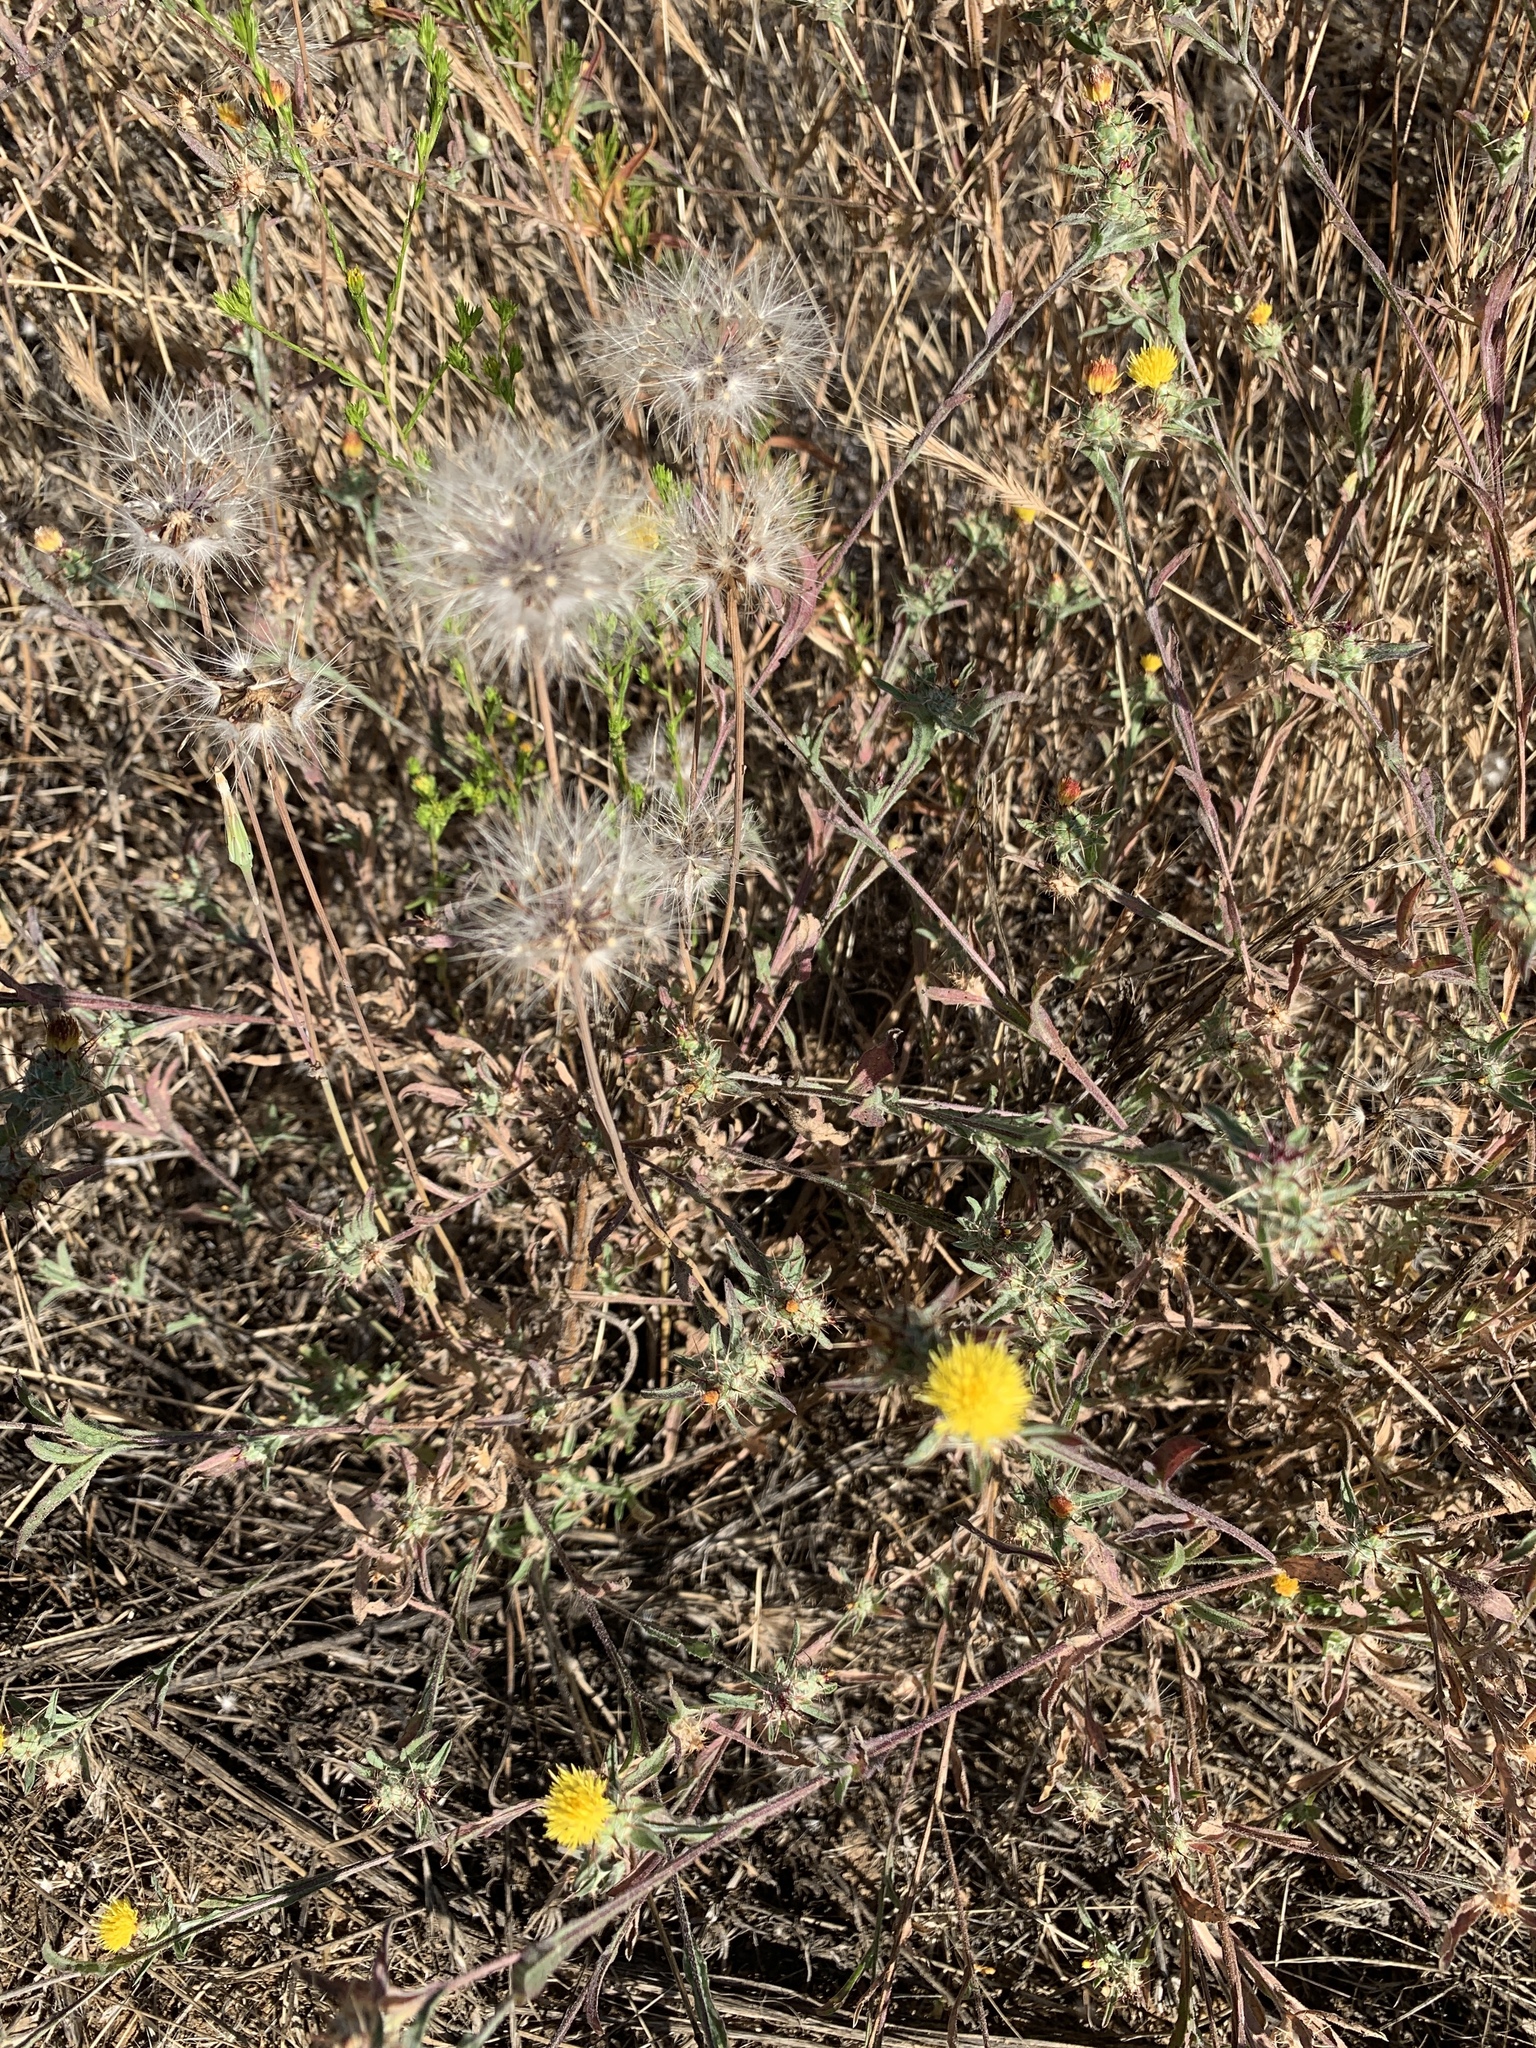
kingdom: Plantae
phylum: Tracheophyta
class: Magnoliopsida
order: Asterales
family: Asteraceae
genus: Centaurea
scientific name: Centaurea melitensis
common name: Maltese star-thistle
